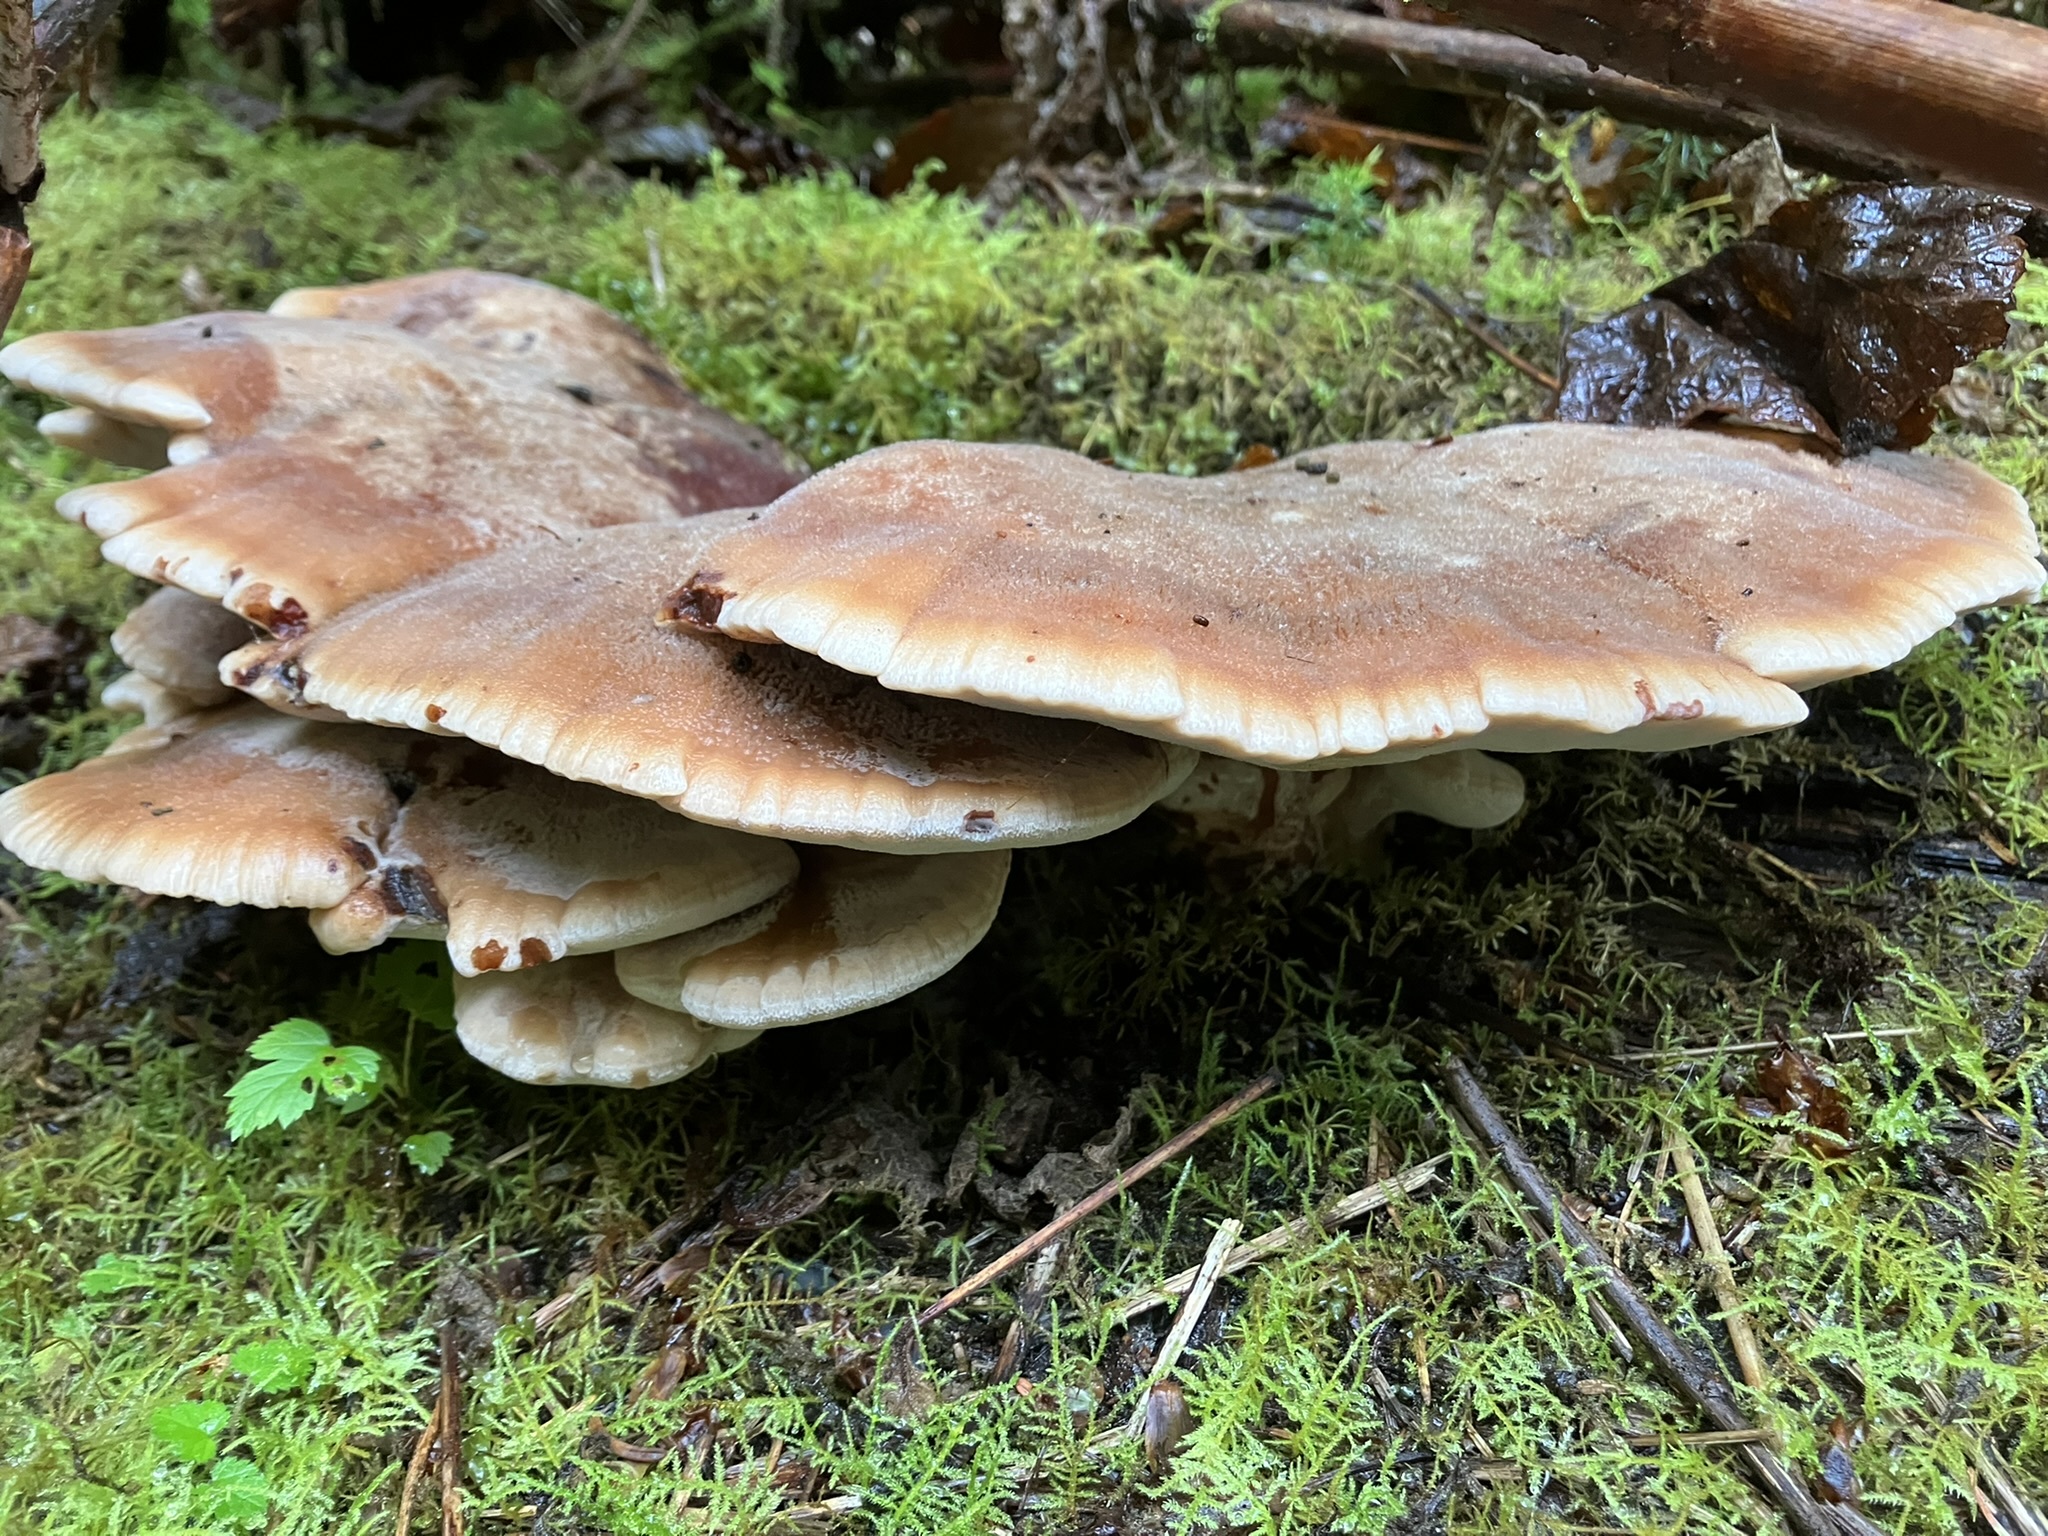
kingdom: Fungi
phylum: Basidiomycota
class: Agaricomycetes
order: Polyporales
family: Dacryobolaceae
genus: Amylocystis
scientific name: Amylocystis lapponica
